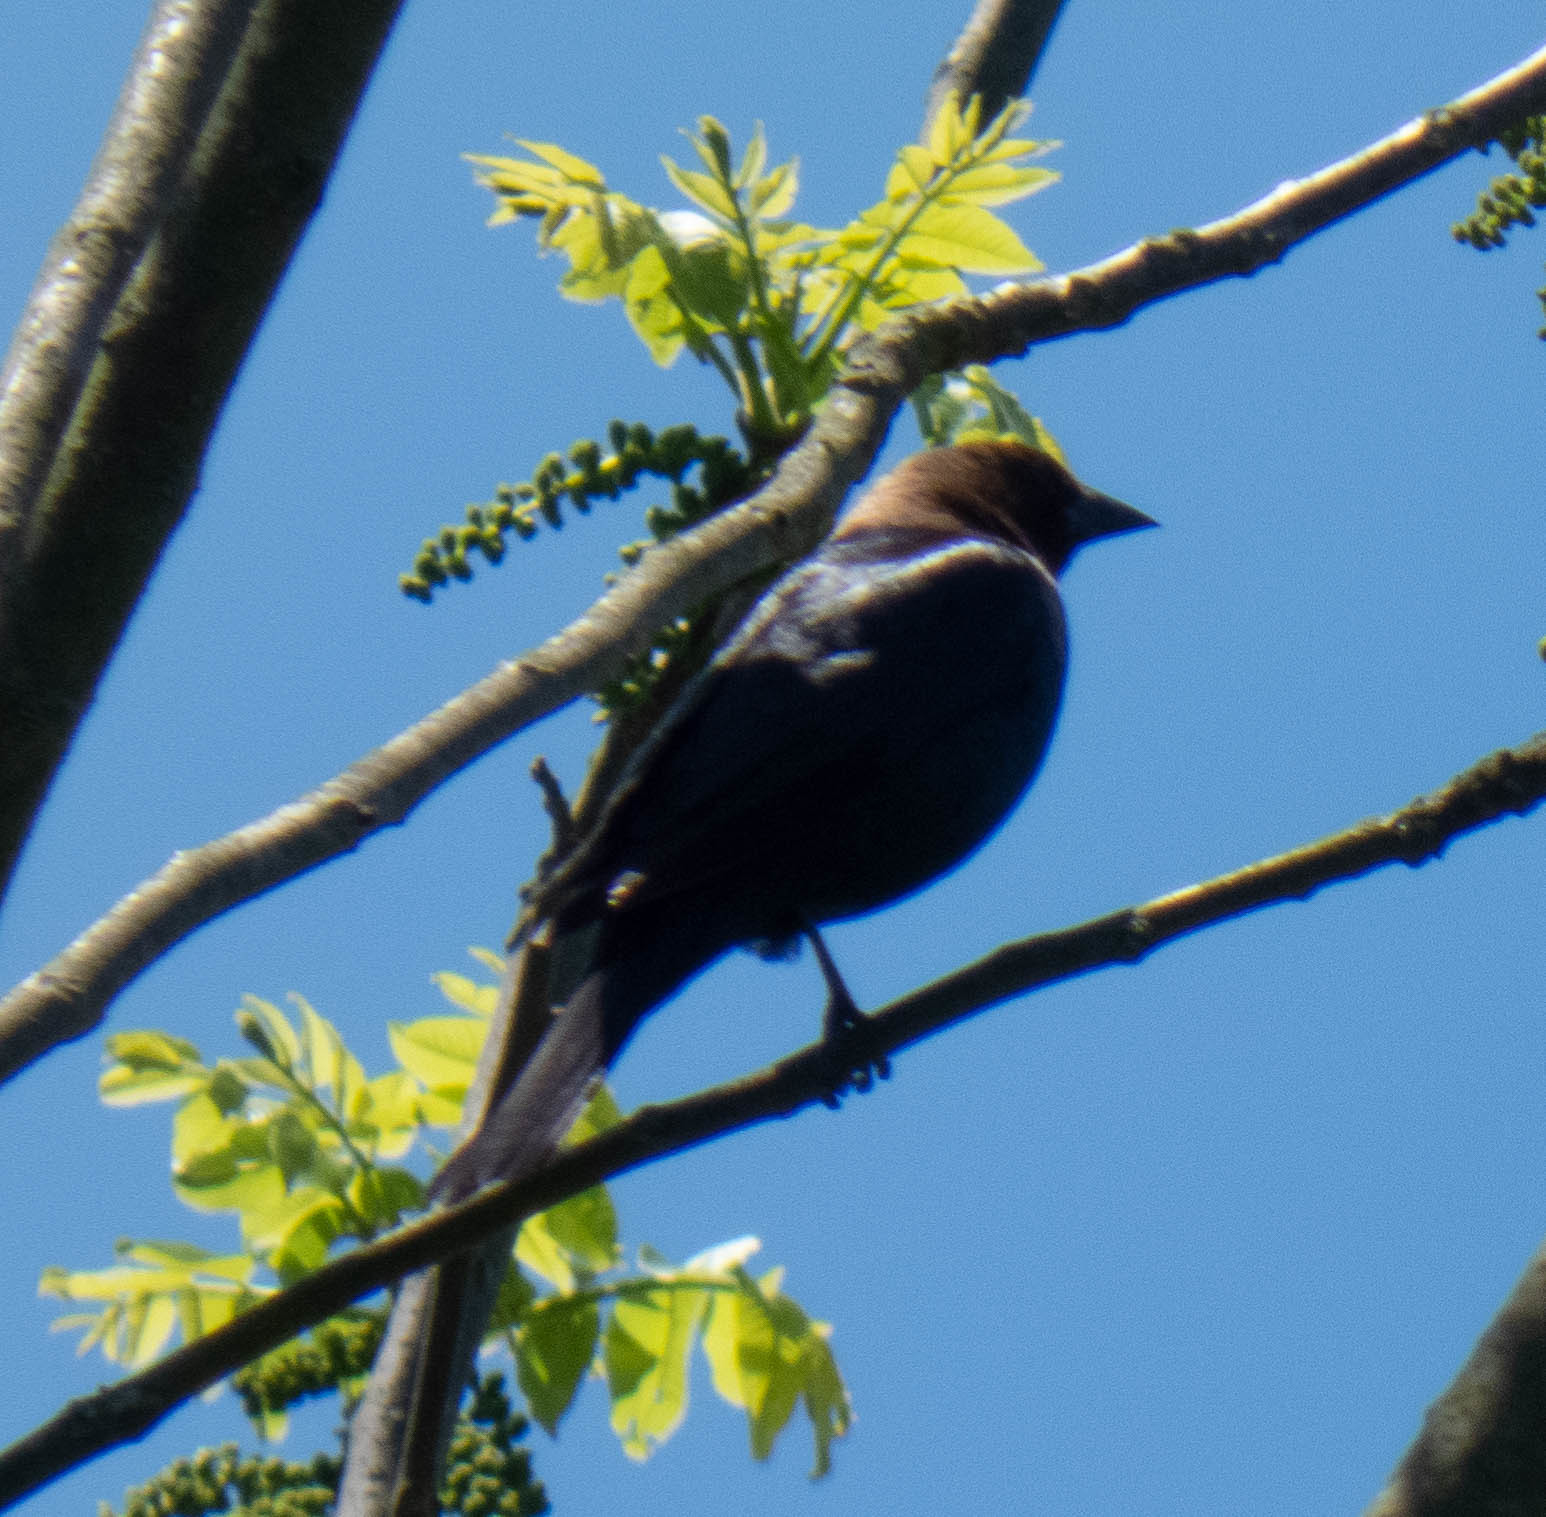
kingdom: Animalia
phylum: Chordata
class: Aves
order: Passeriformes
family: Icteridae
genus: Molothrus
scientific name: Molothrus ater
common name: Brown-headed cowbird
